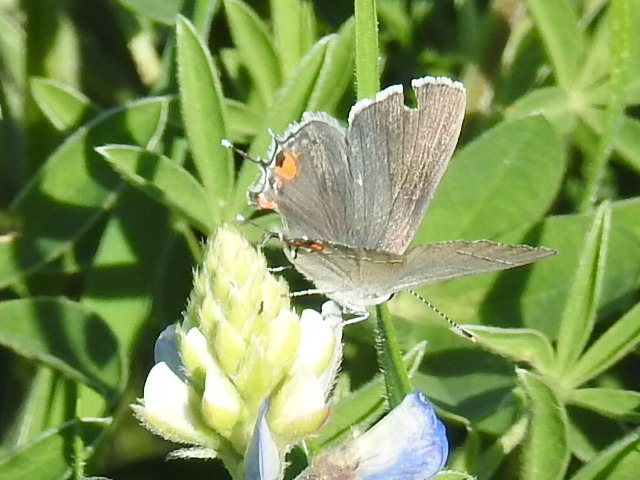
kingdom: Animalia
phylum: Arthropoda
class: Insecta
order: Lepidoptera
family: Lycaenidae
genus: Strymon
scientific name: Strymon melinus
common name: Gray hairstreak
